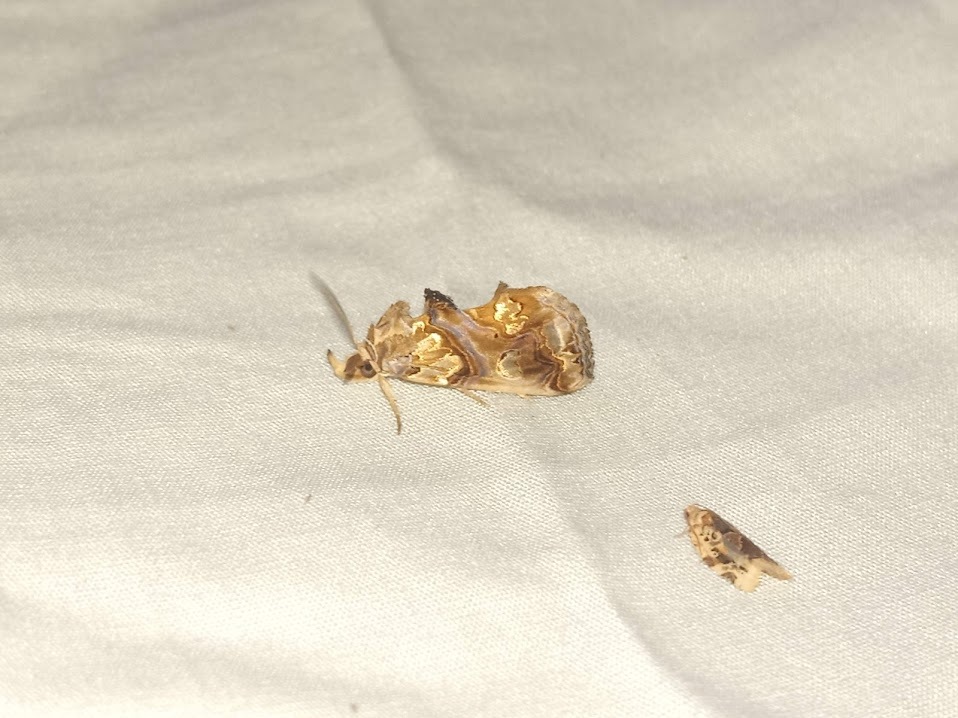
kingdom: Animalia
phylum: Arthropoda
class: Insecta
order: Lepidoptera
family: Erebidae
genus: Plusiodonta
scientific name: Plusiodonta compressipalpis
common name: Moonseed moth
